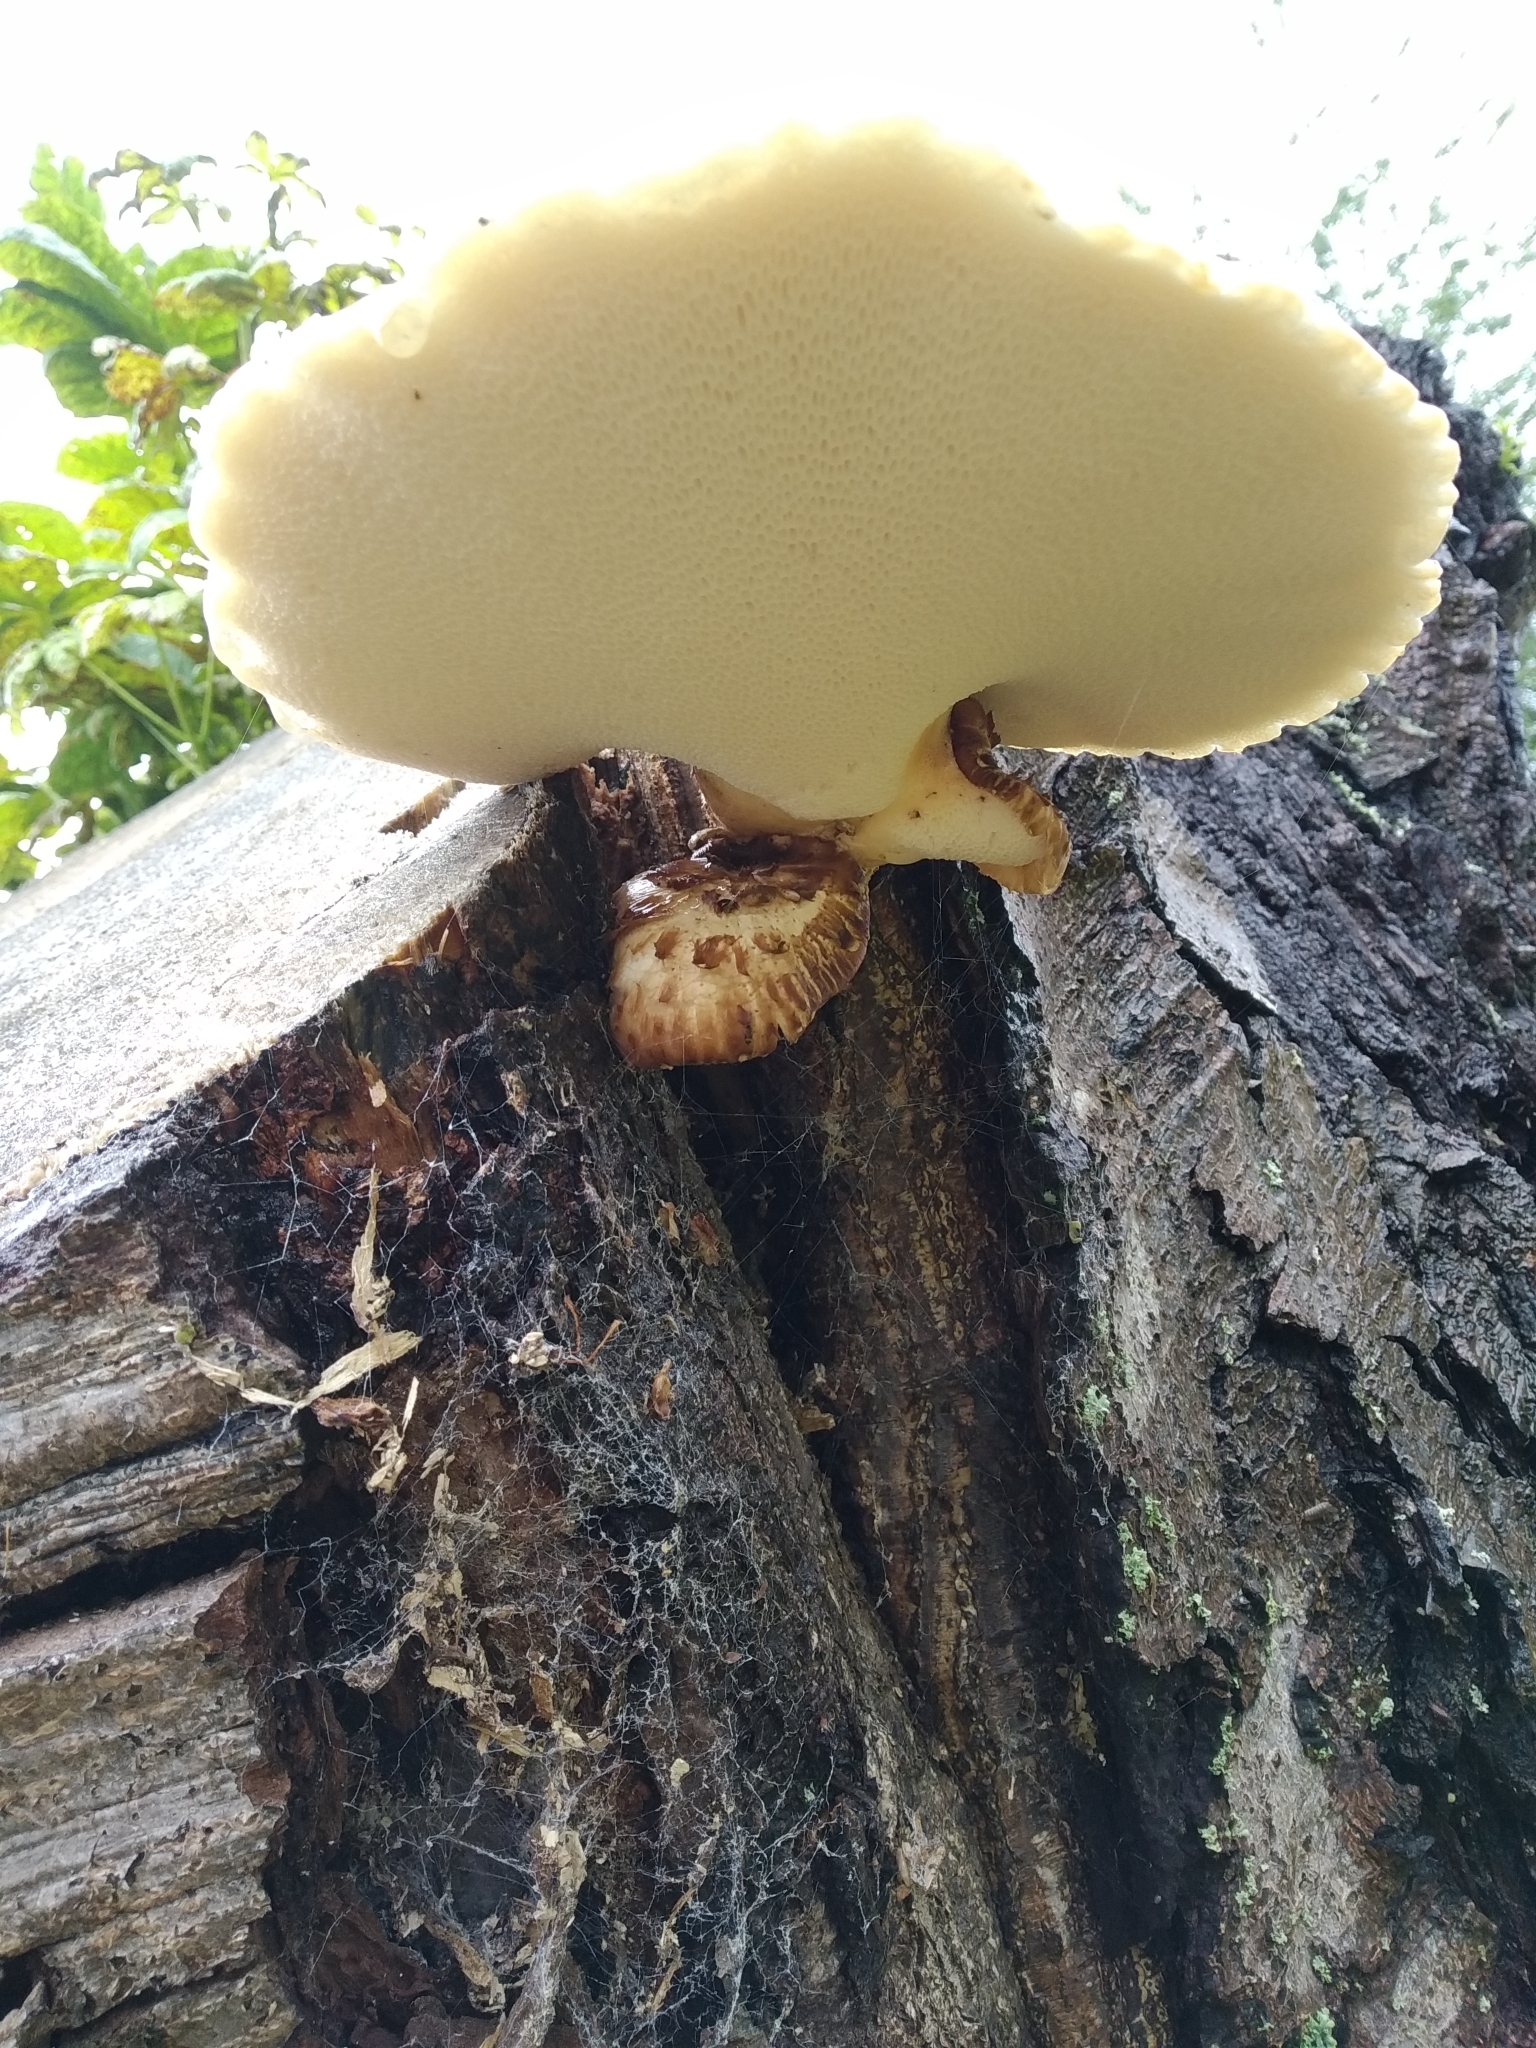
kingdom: Fungi
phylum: Basidiomycota
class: Agaricomycetes
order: Polyporales
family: Polyporaceae
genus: Cerioporus
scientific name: Cerioporus squamosus
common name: Dryad's saddle
